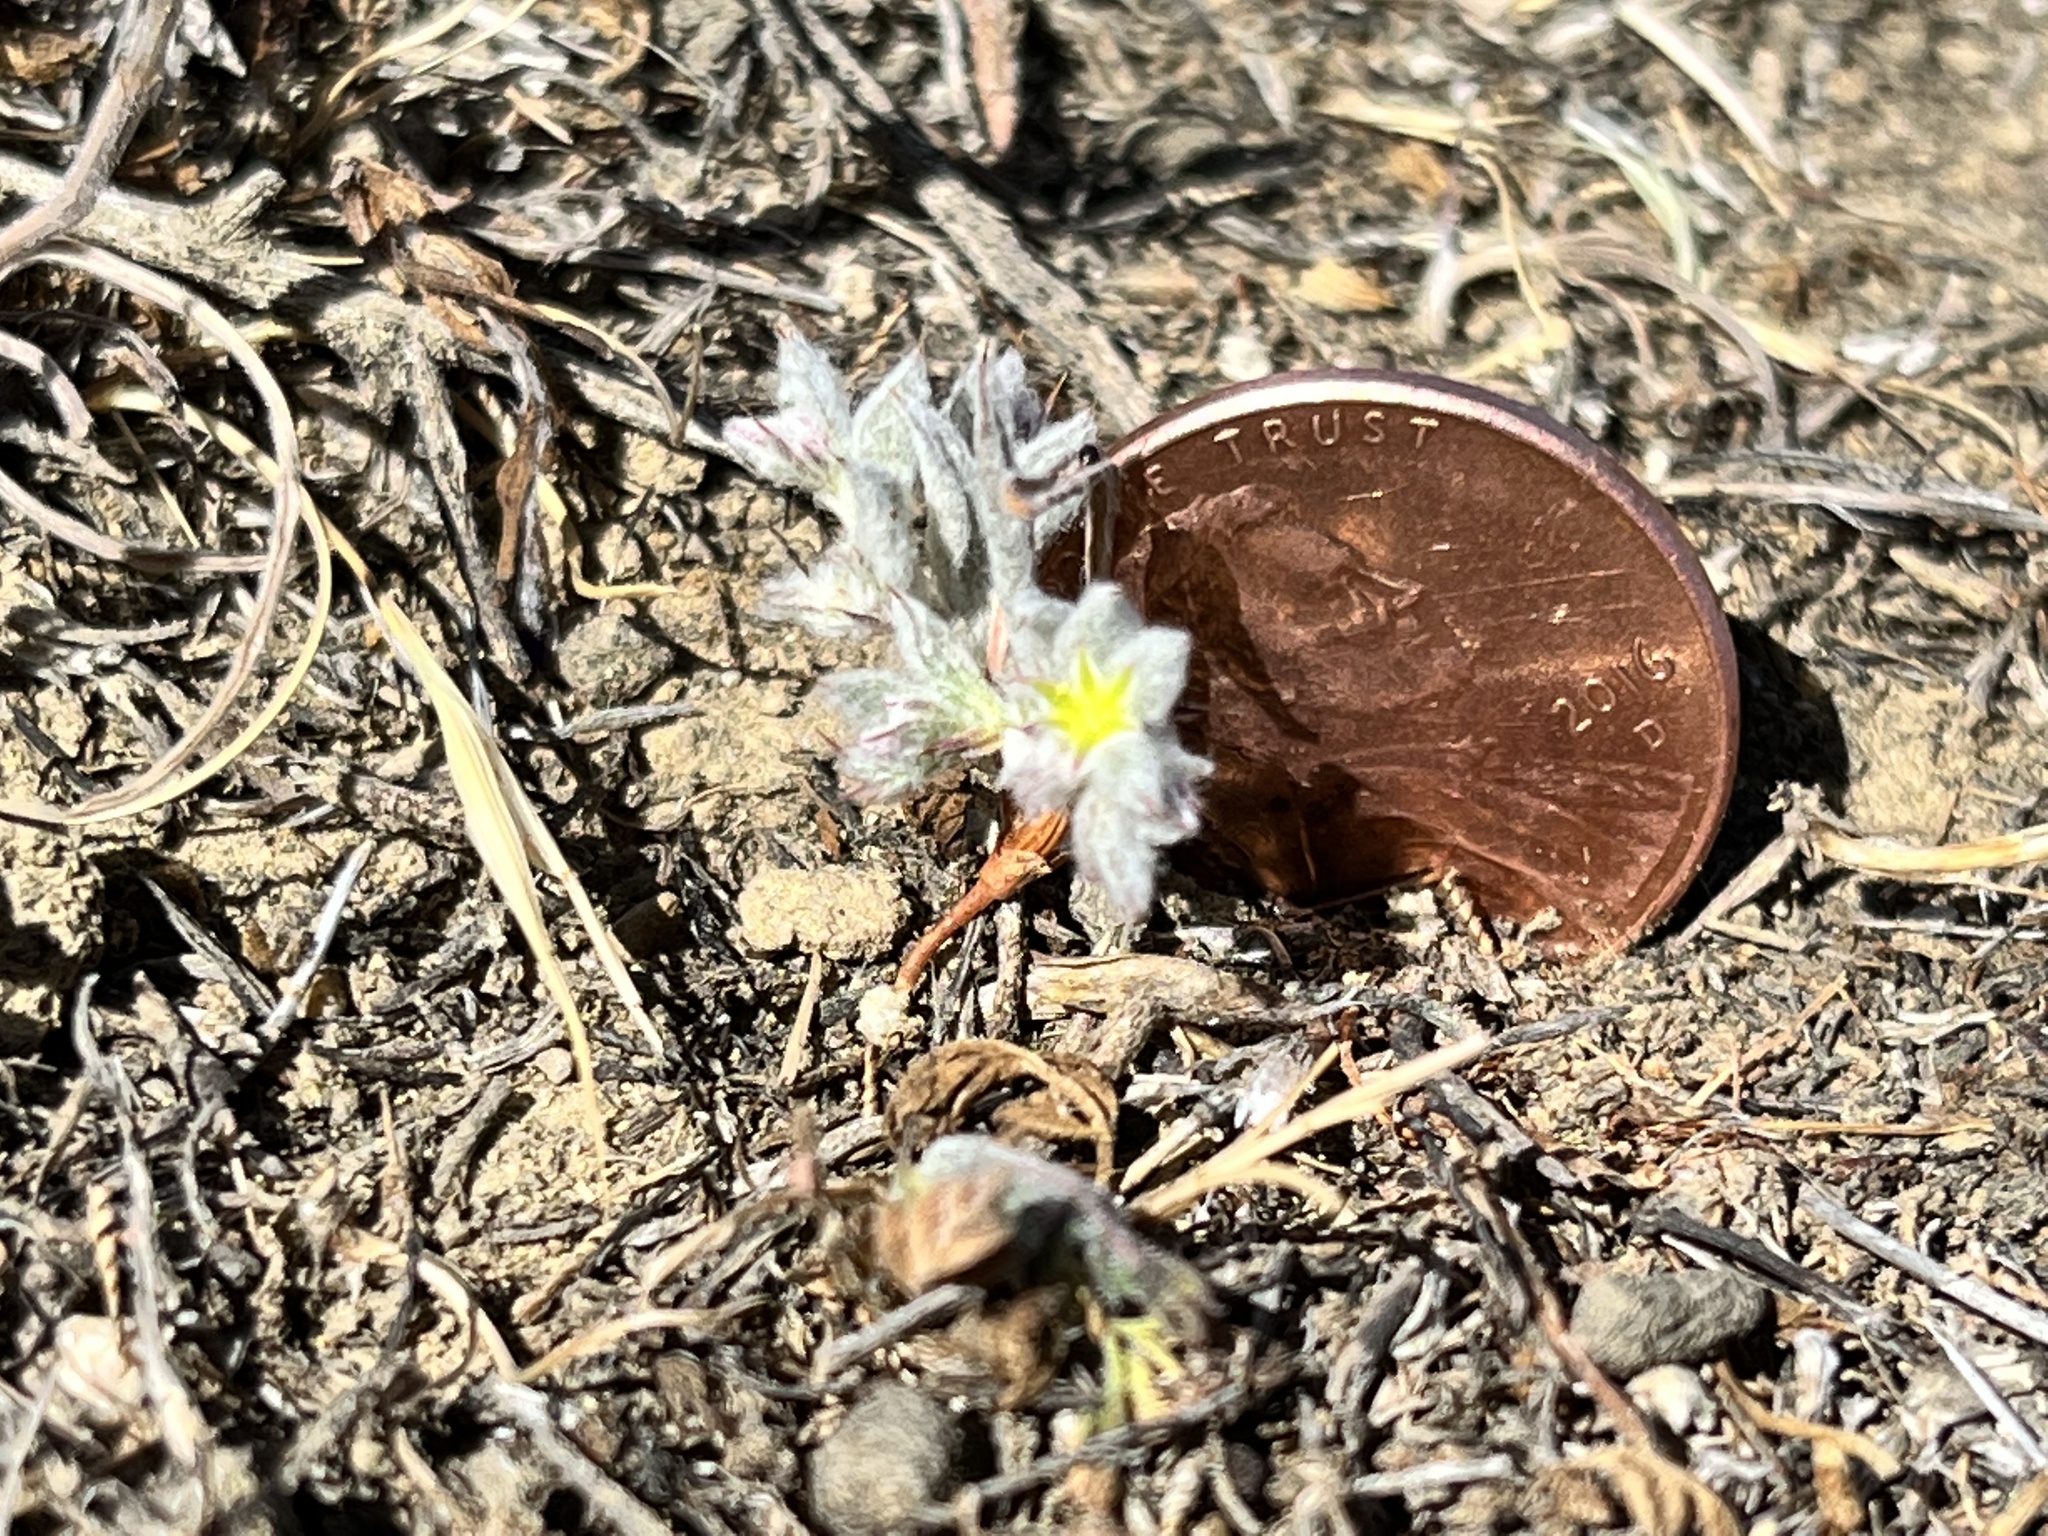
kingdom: Plantae
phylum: Tracheophyta
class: Magnoliopsida
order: Caryophyllales
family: Polygonaceae
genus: Hollisteria
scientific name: Hollisteria lanata
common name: False spike-flower
